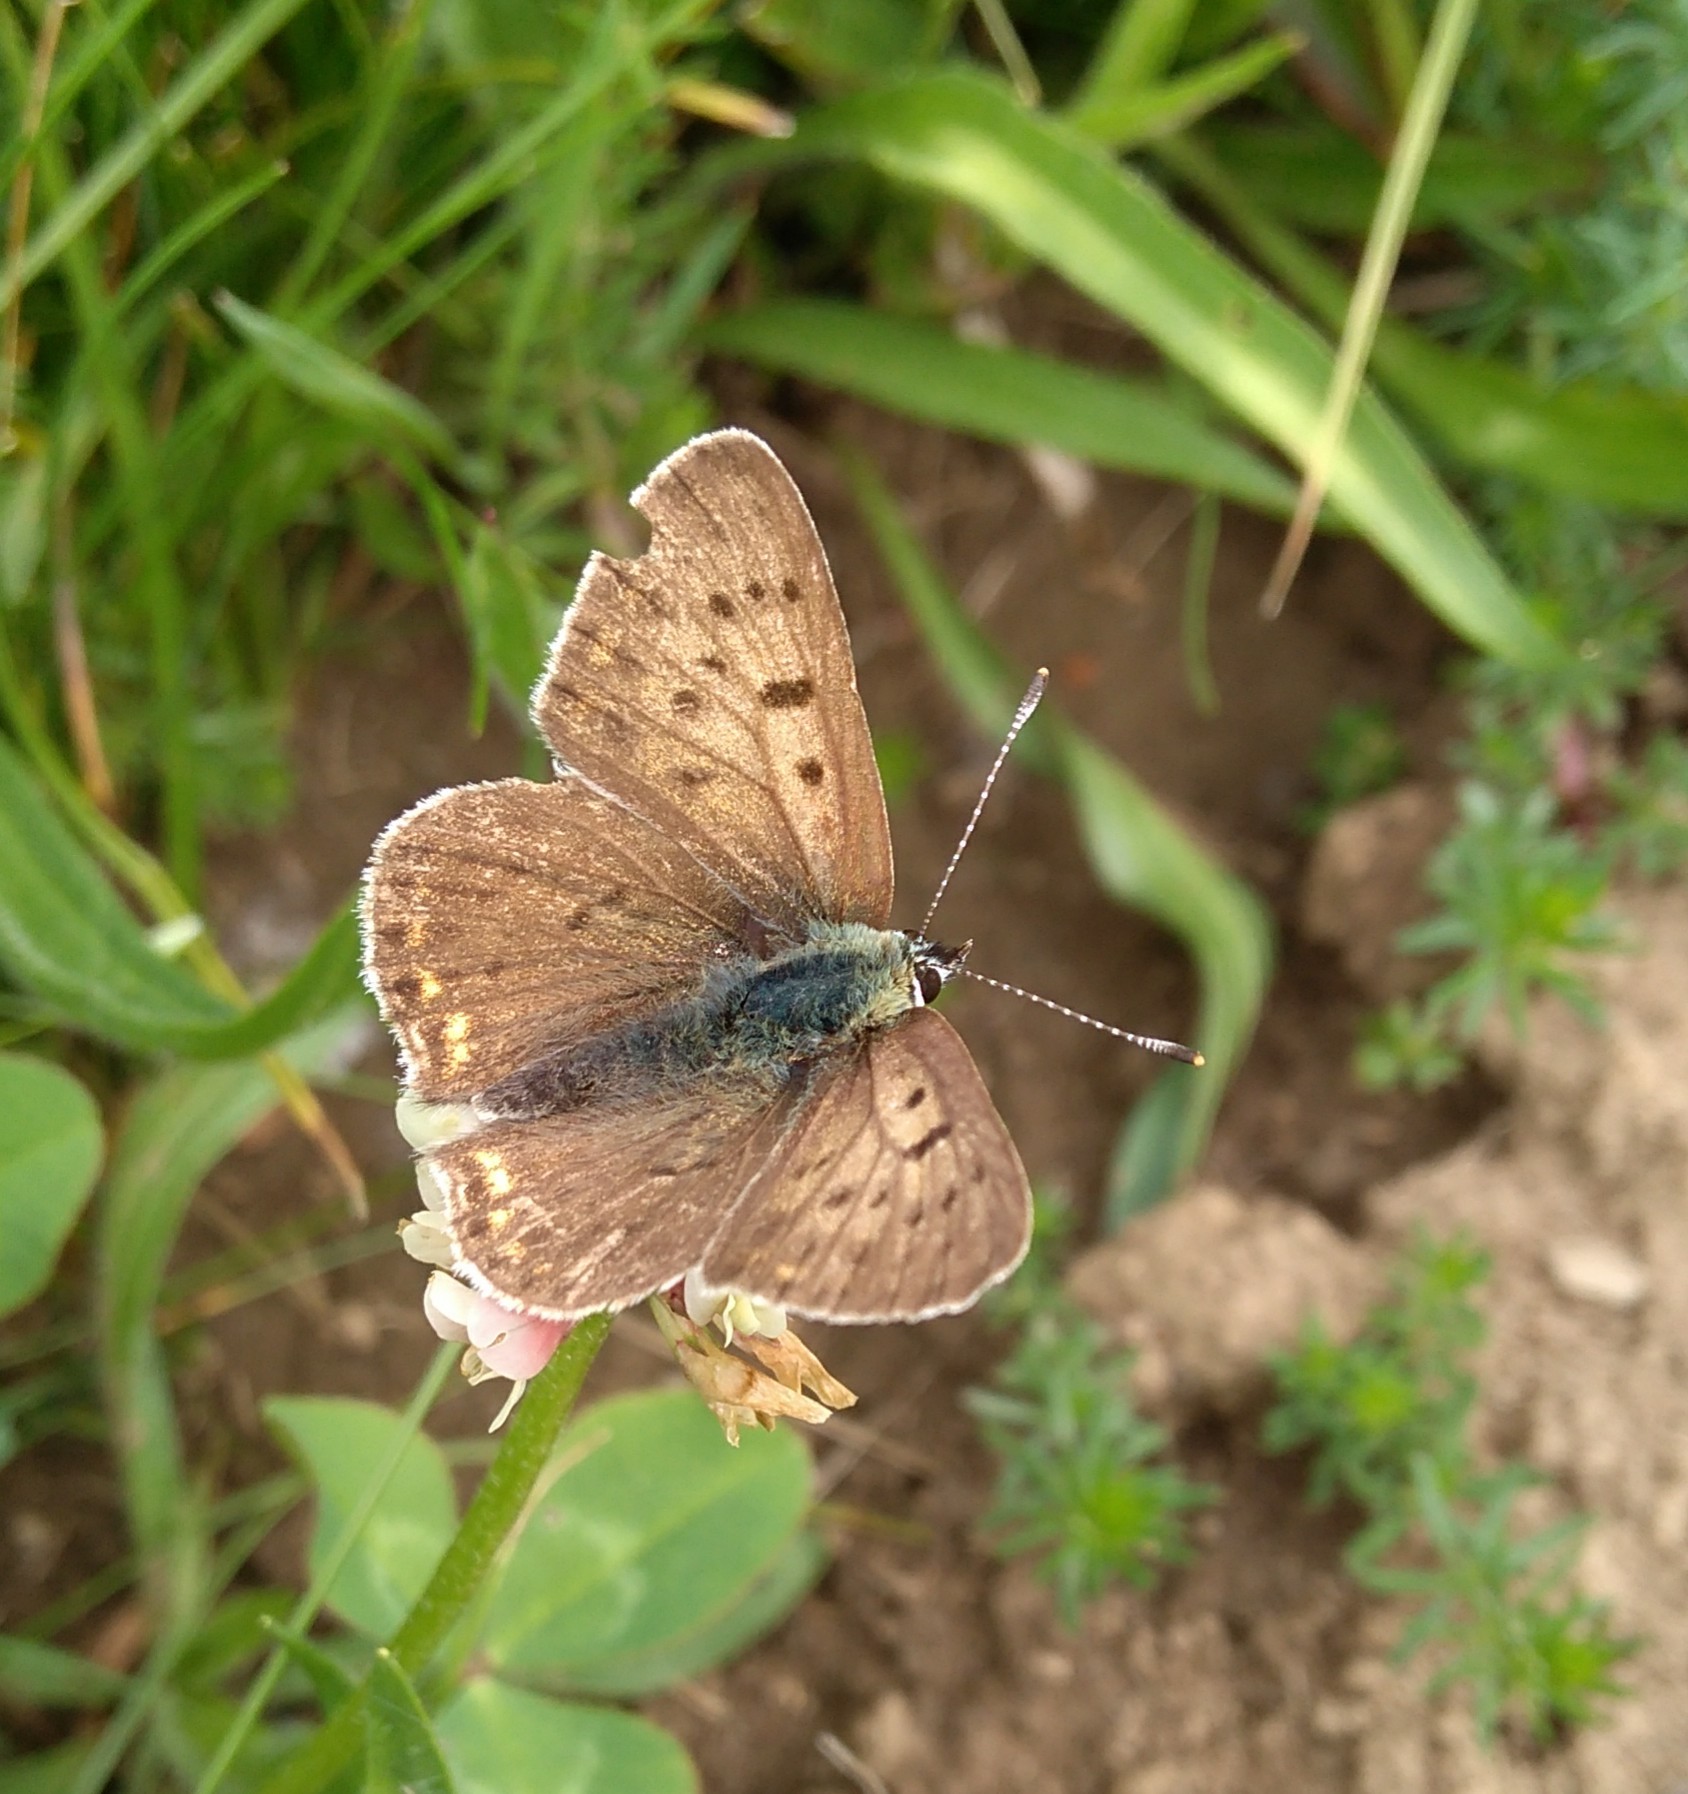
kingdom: Animalia
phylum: Arthropoda
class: Insecta
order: Lepidoptera
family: Lycaenidae
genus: Loweia
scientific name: Loweia tityrus
